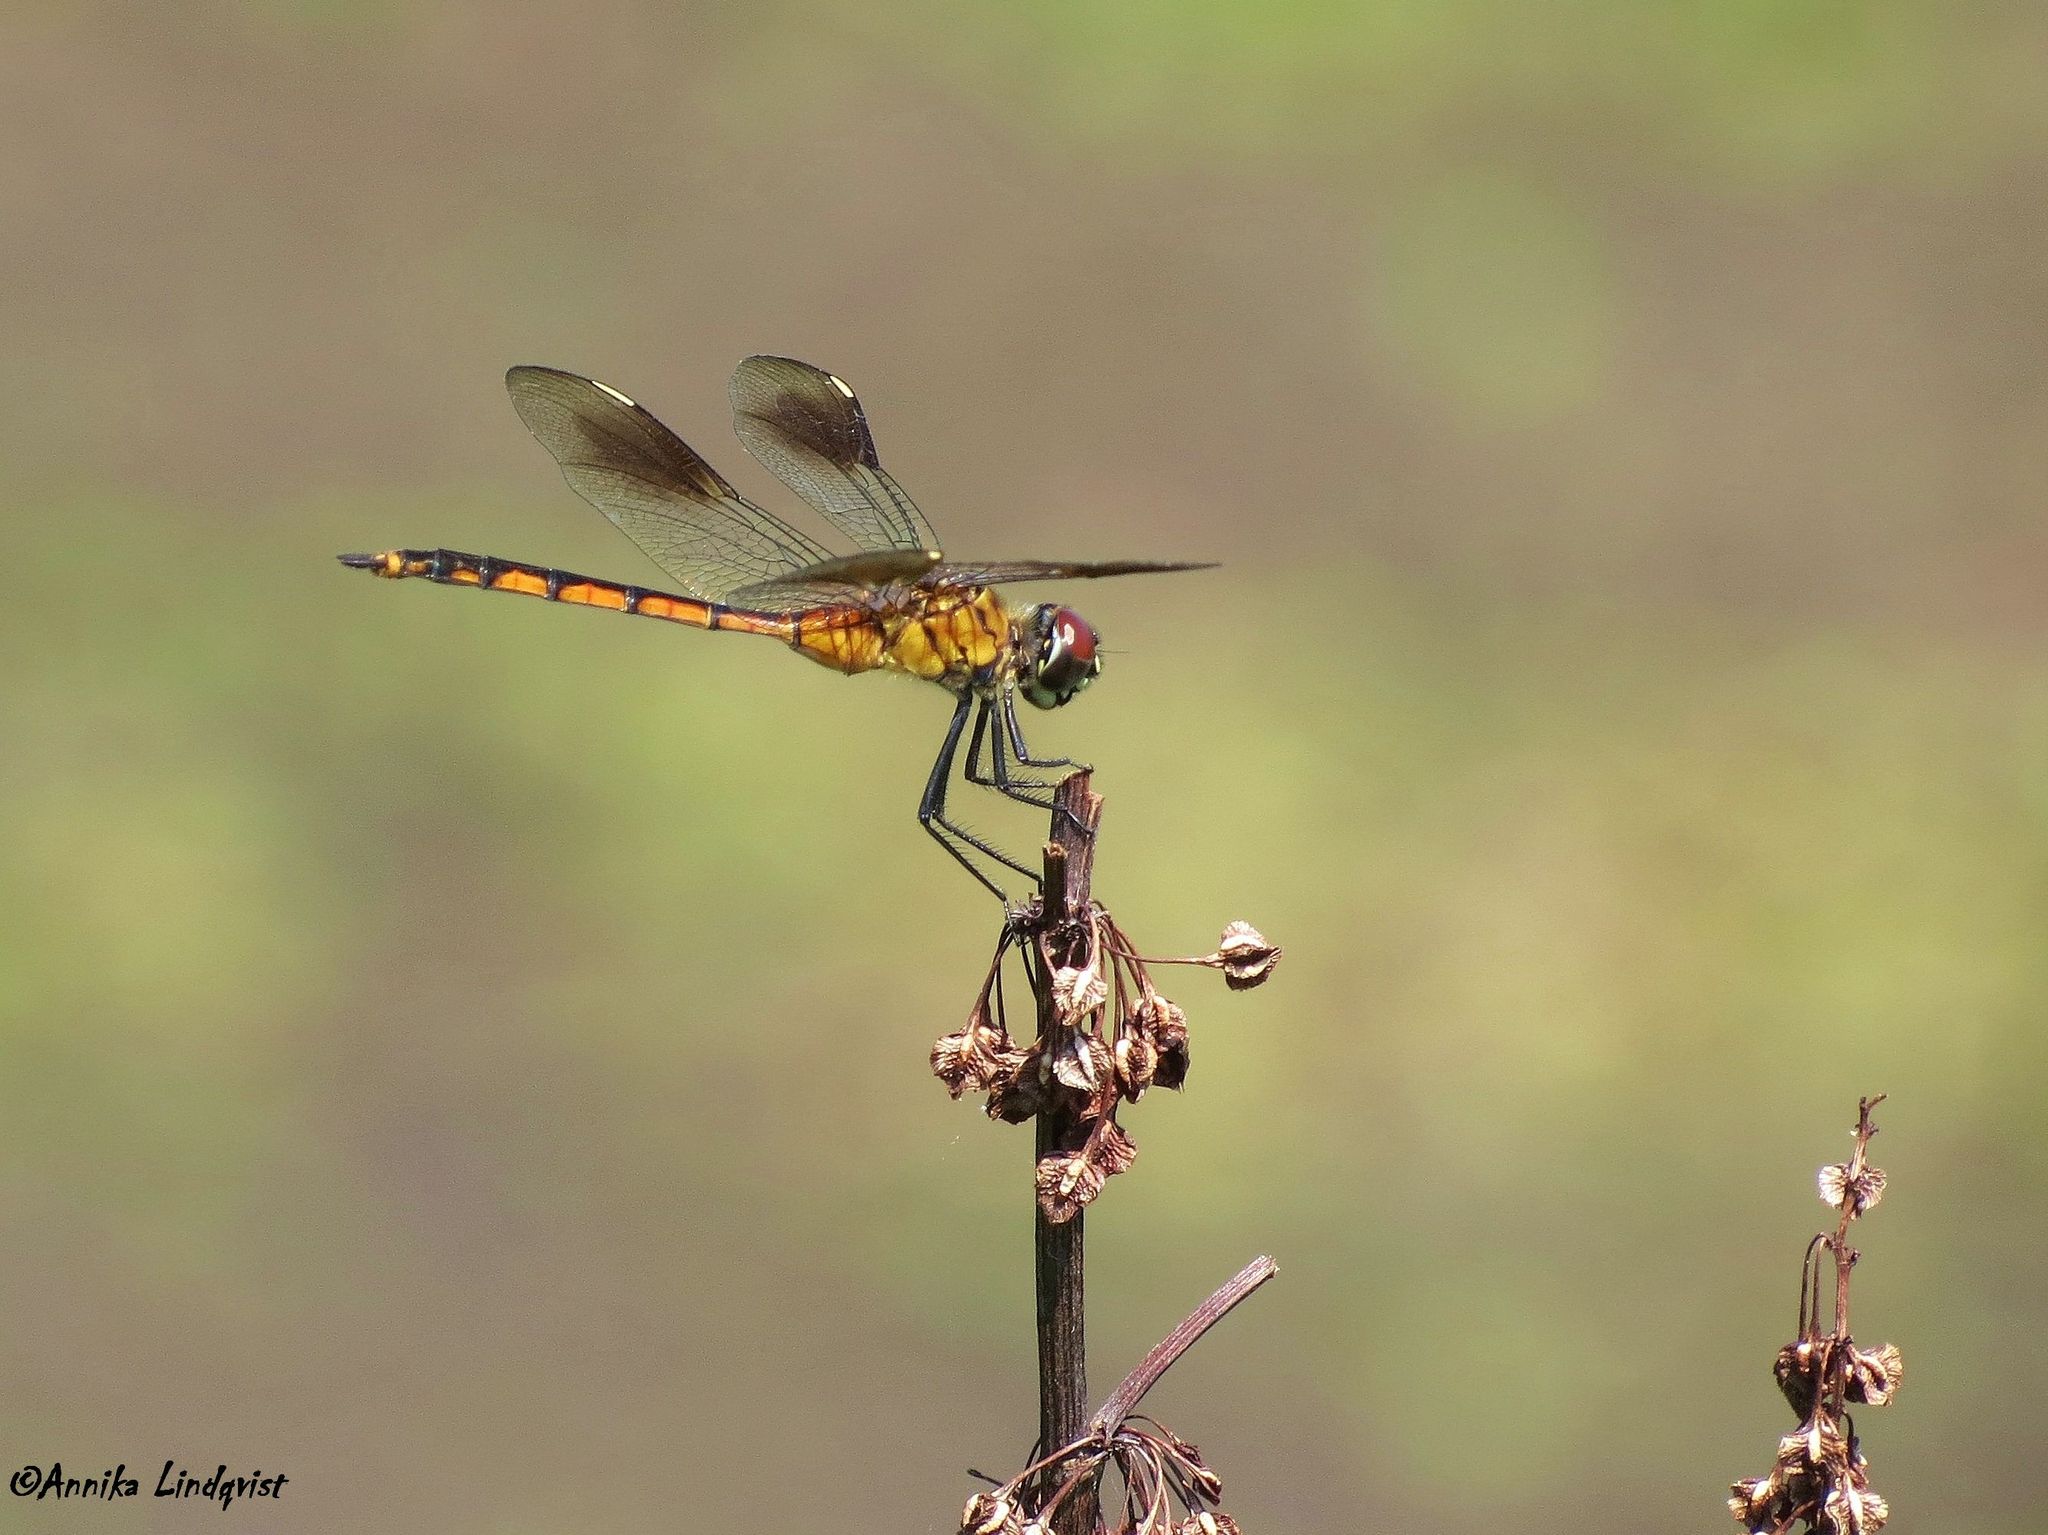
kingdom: Animalia
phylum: Arthropoda
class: Insecta
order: Odonata
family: Libellulidae
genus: Brachymesia
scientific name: Brachymesia gravida
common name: Four-spotted pennant
